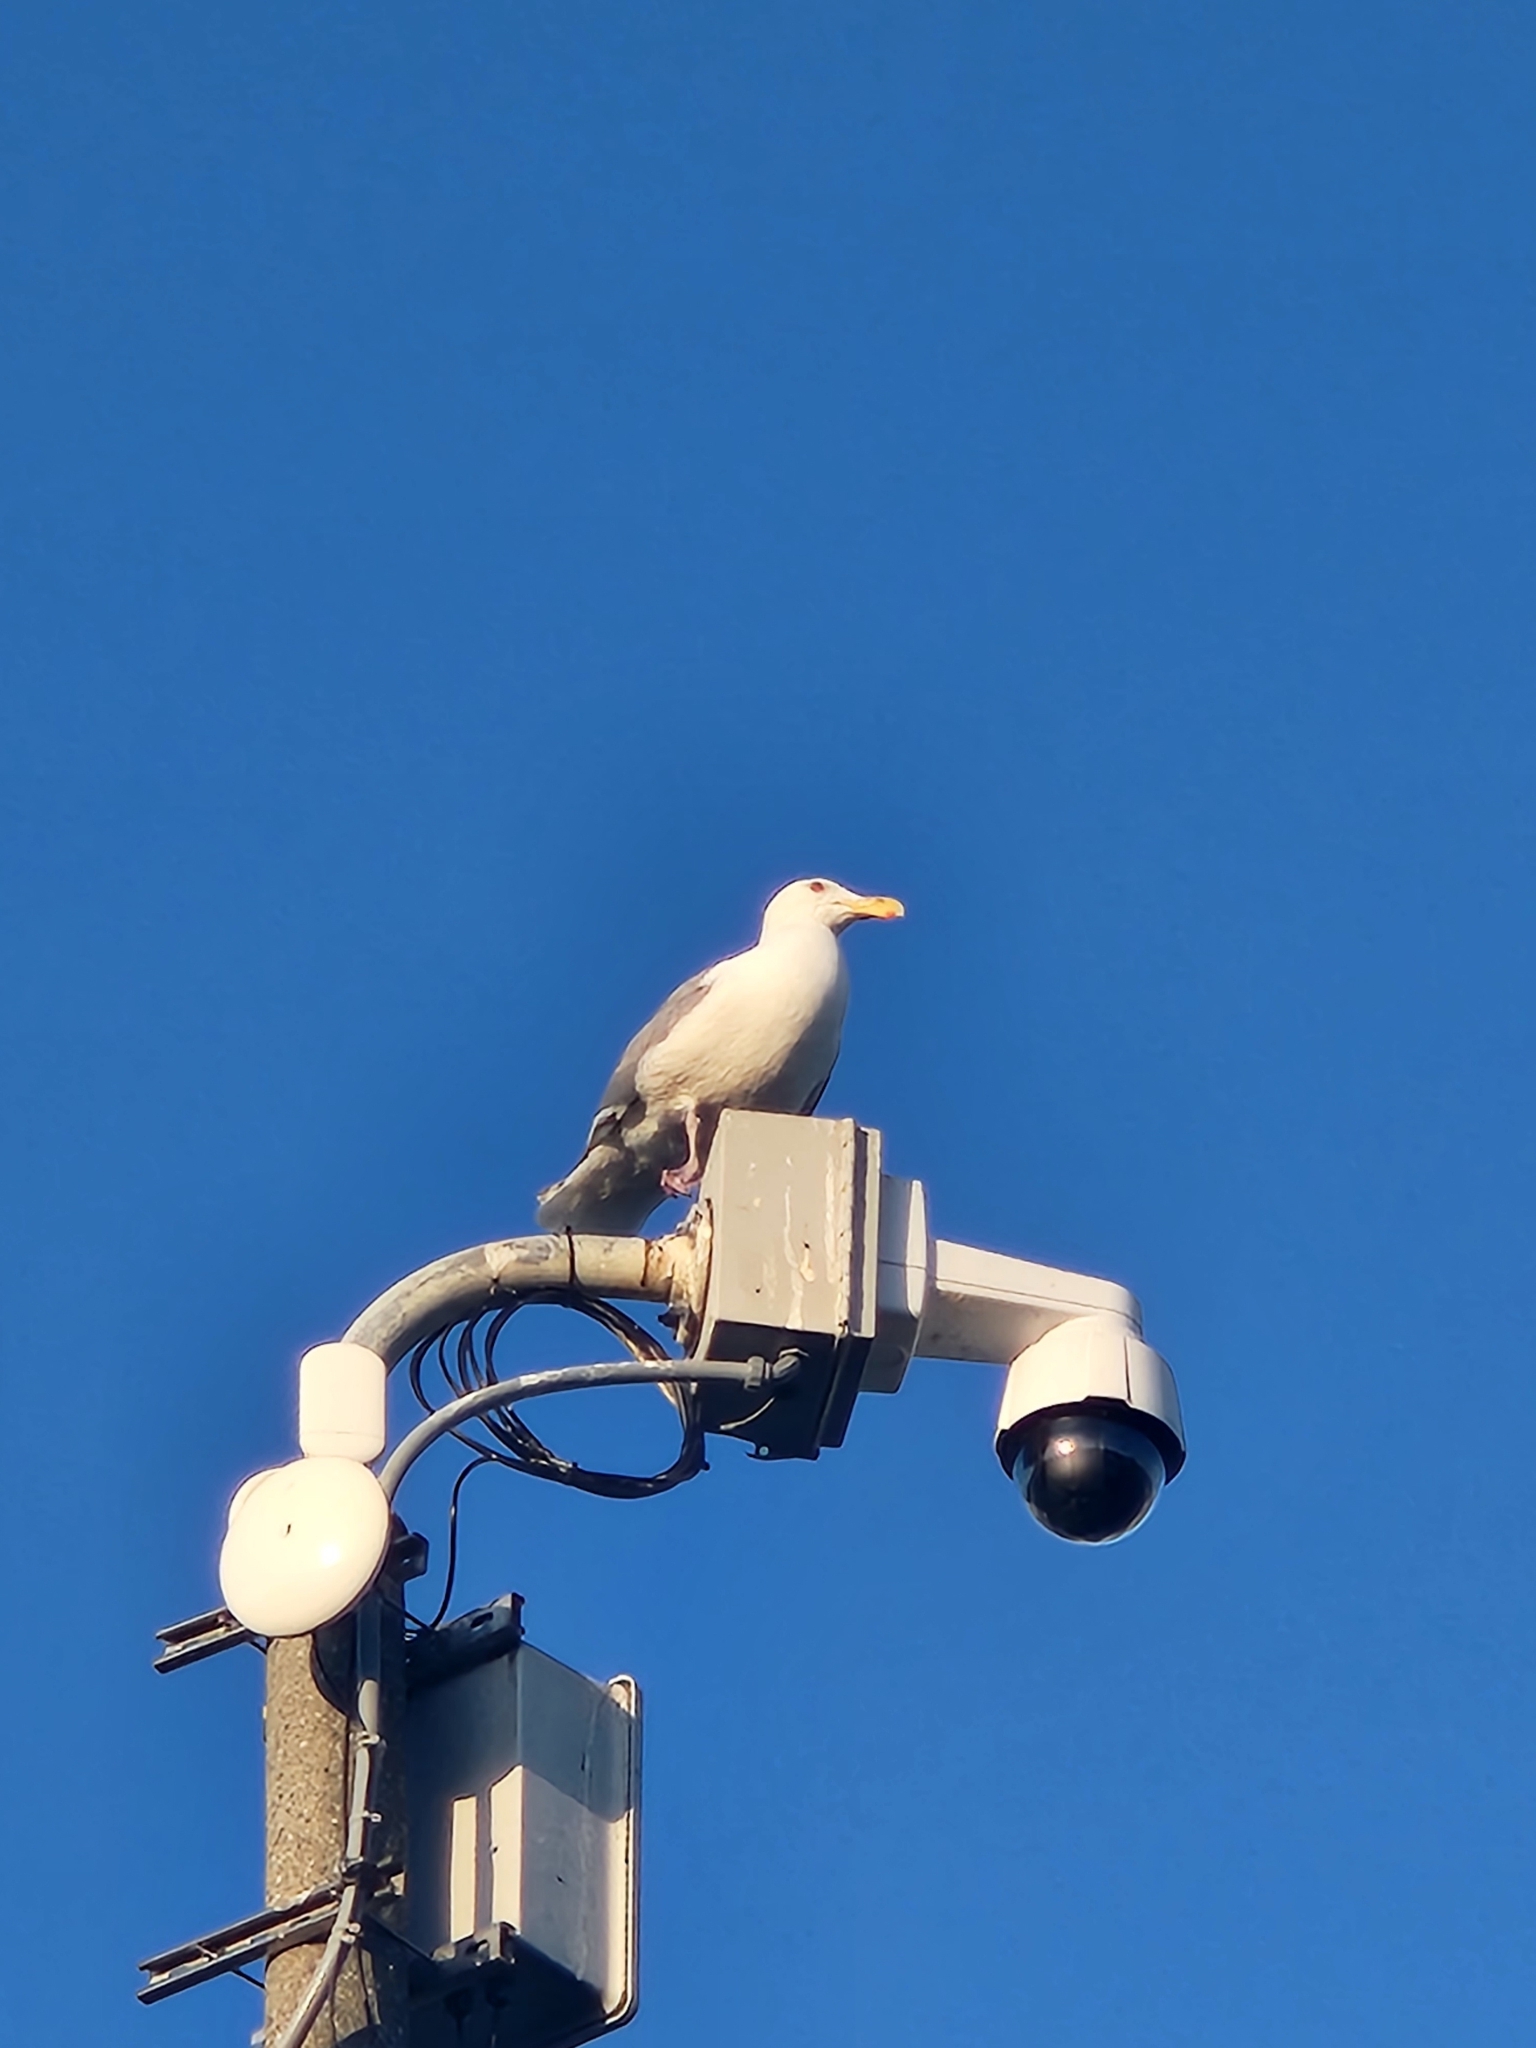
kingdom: Animalia
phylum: Chordata
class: Aves
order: Charadriiformes
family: Laridae
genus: Larus
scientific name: Larus occidentalis
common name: Western gull
